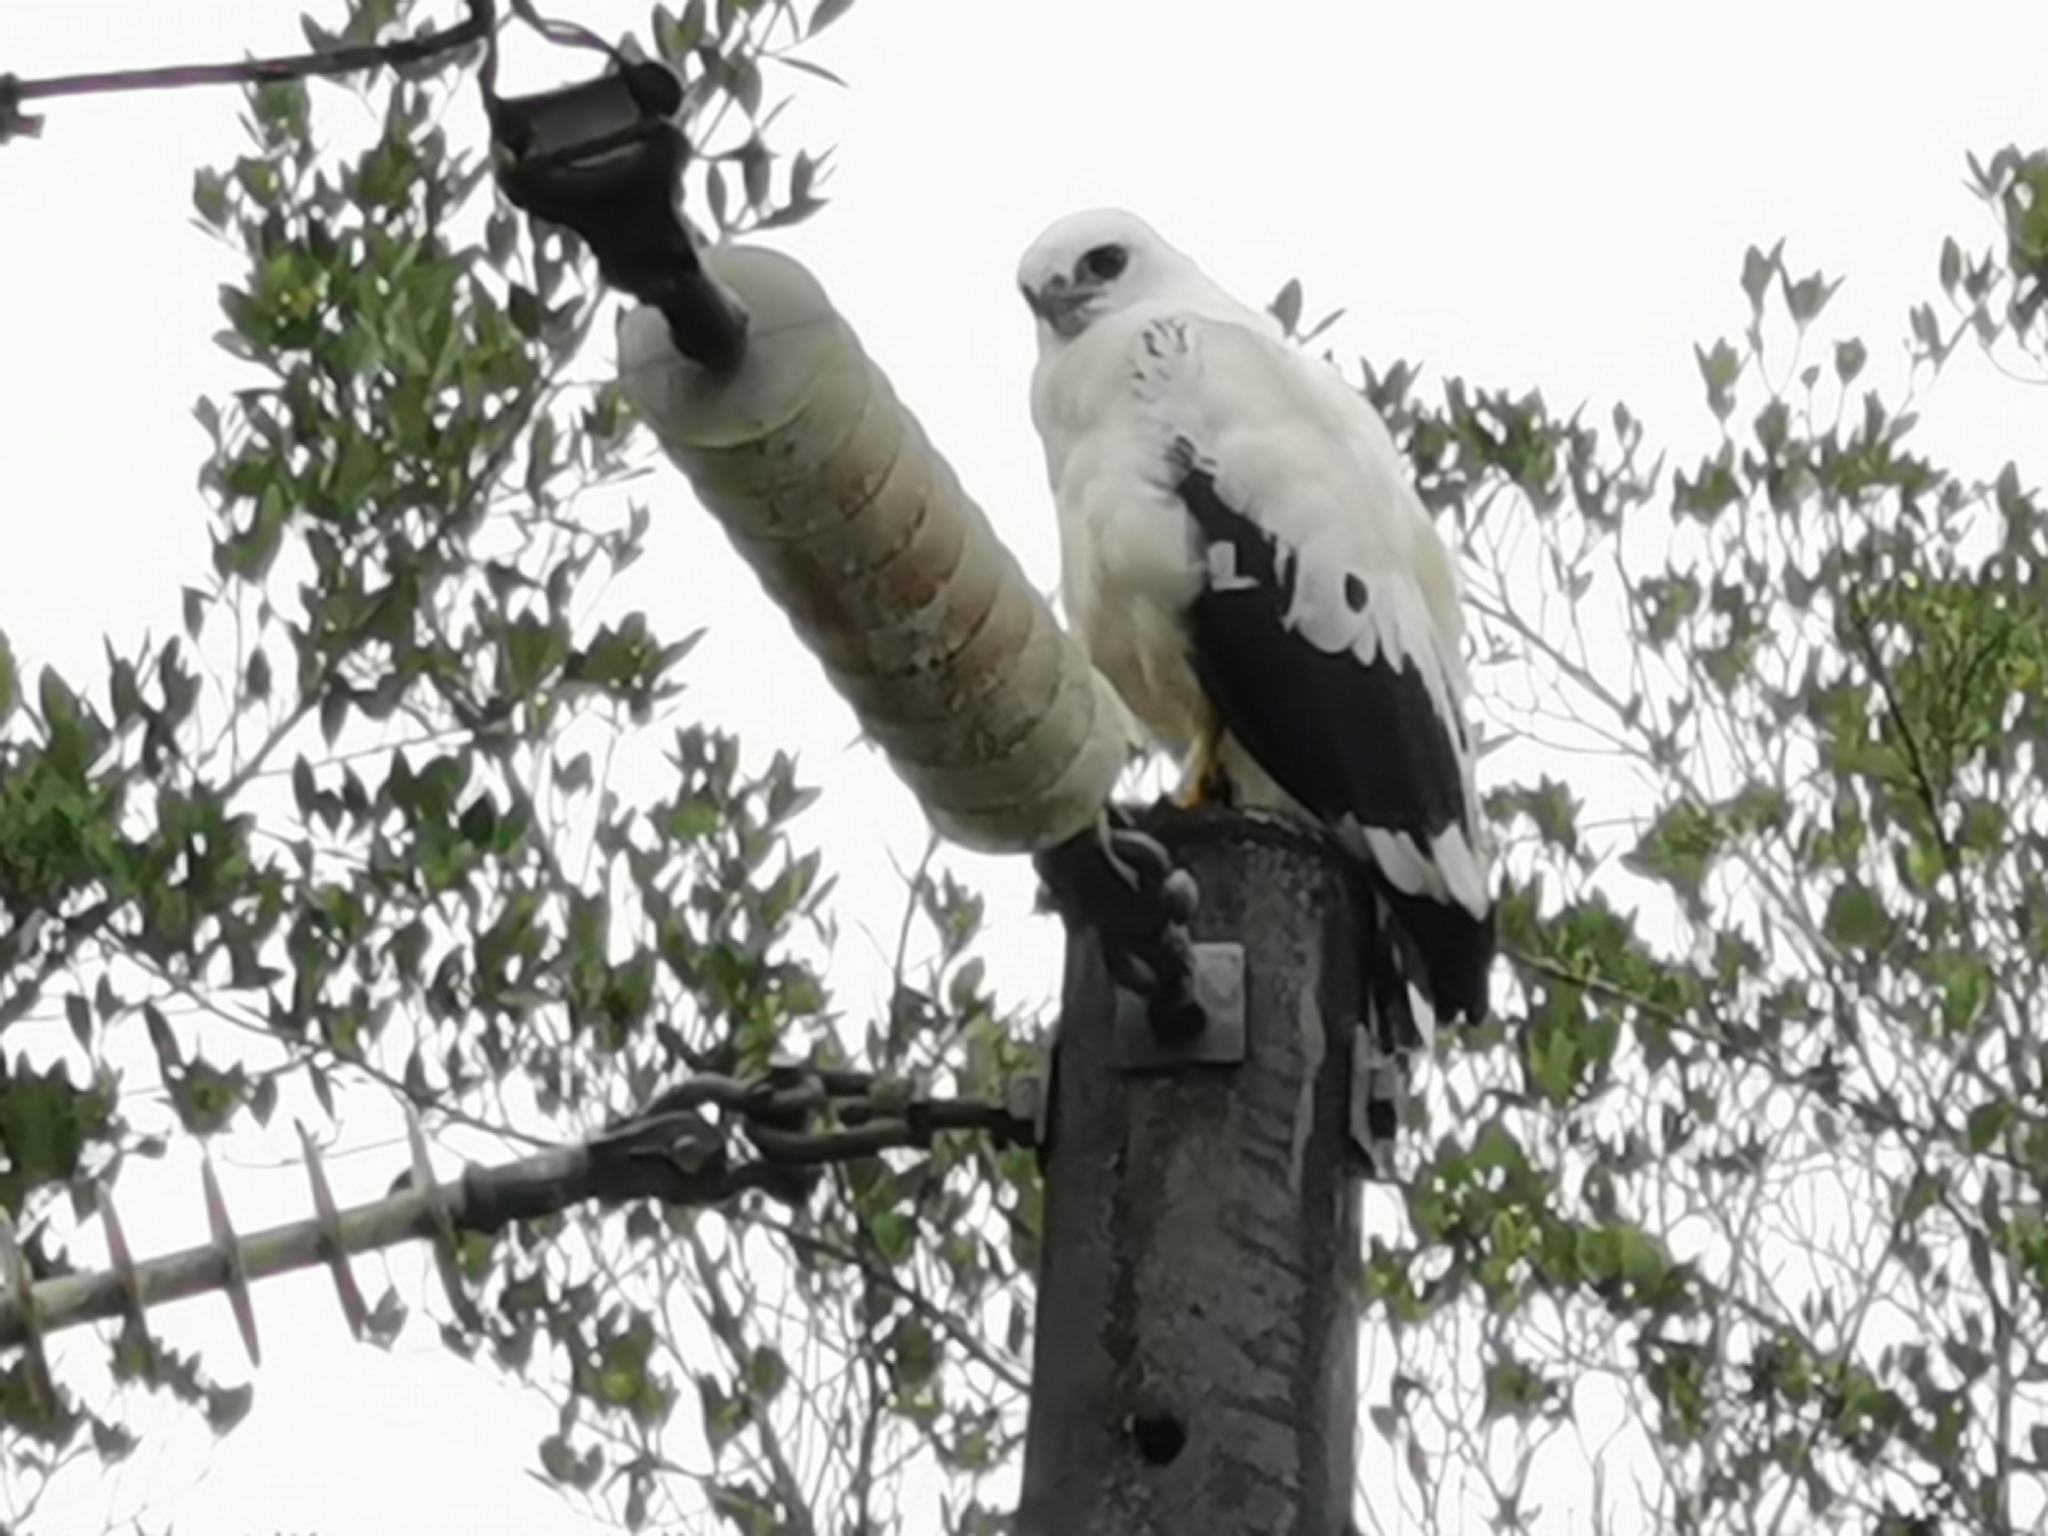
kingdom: Animalia
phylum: Chordata
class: Aves
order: Accipitriformes
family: Accipitridae
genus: Leucopternis
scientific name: Leucopternis albicollis
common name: White hawk
